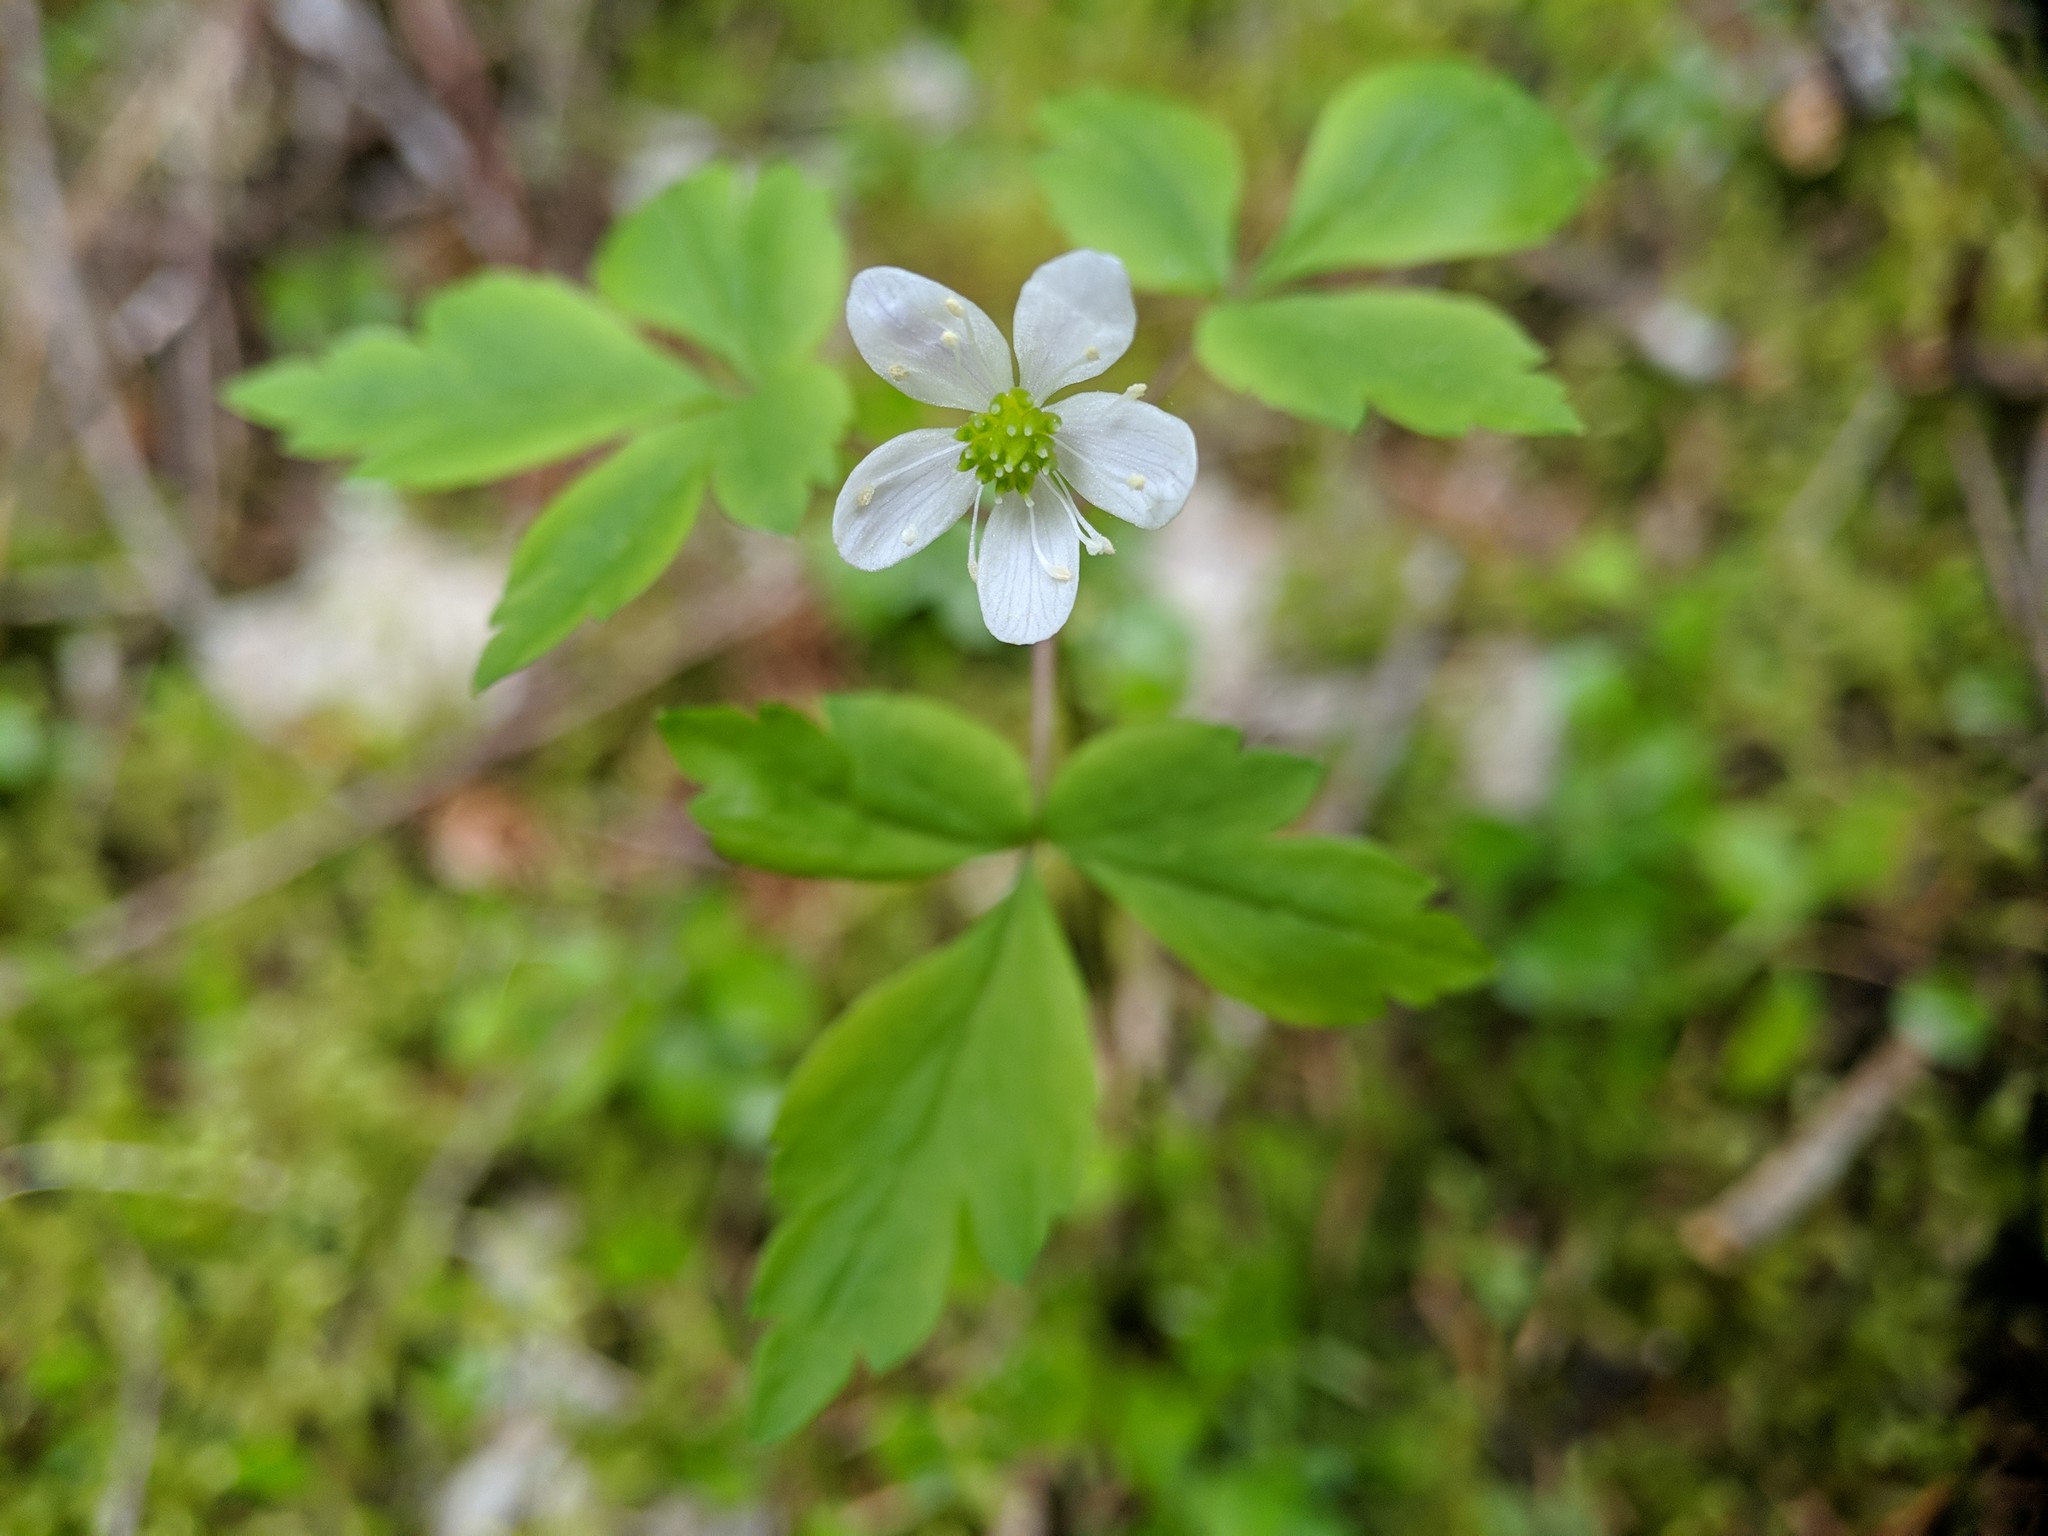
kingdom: Plantae
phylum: Tracheophyta
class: Magnoliopsida
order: Ranunculales
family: Ranunculaceae
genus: Anemone
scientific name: Anemone
